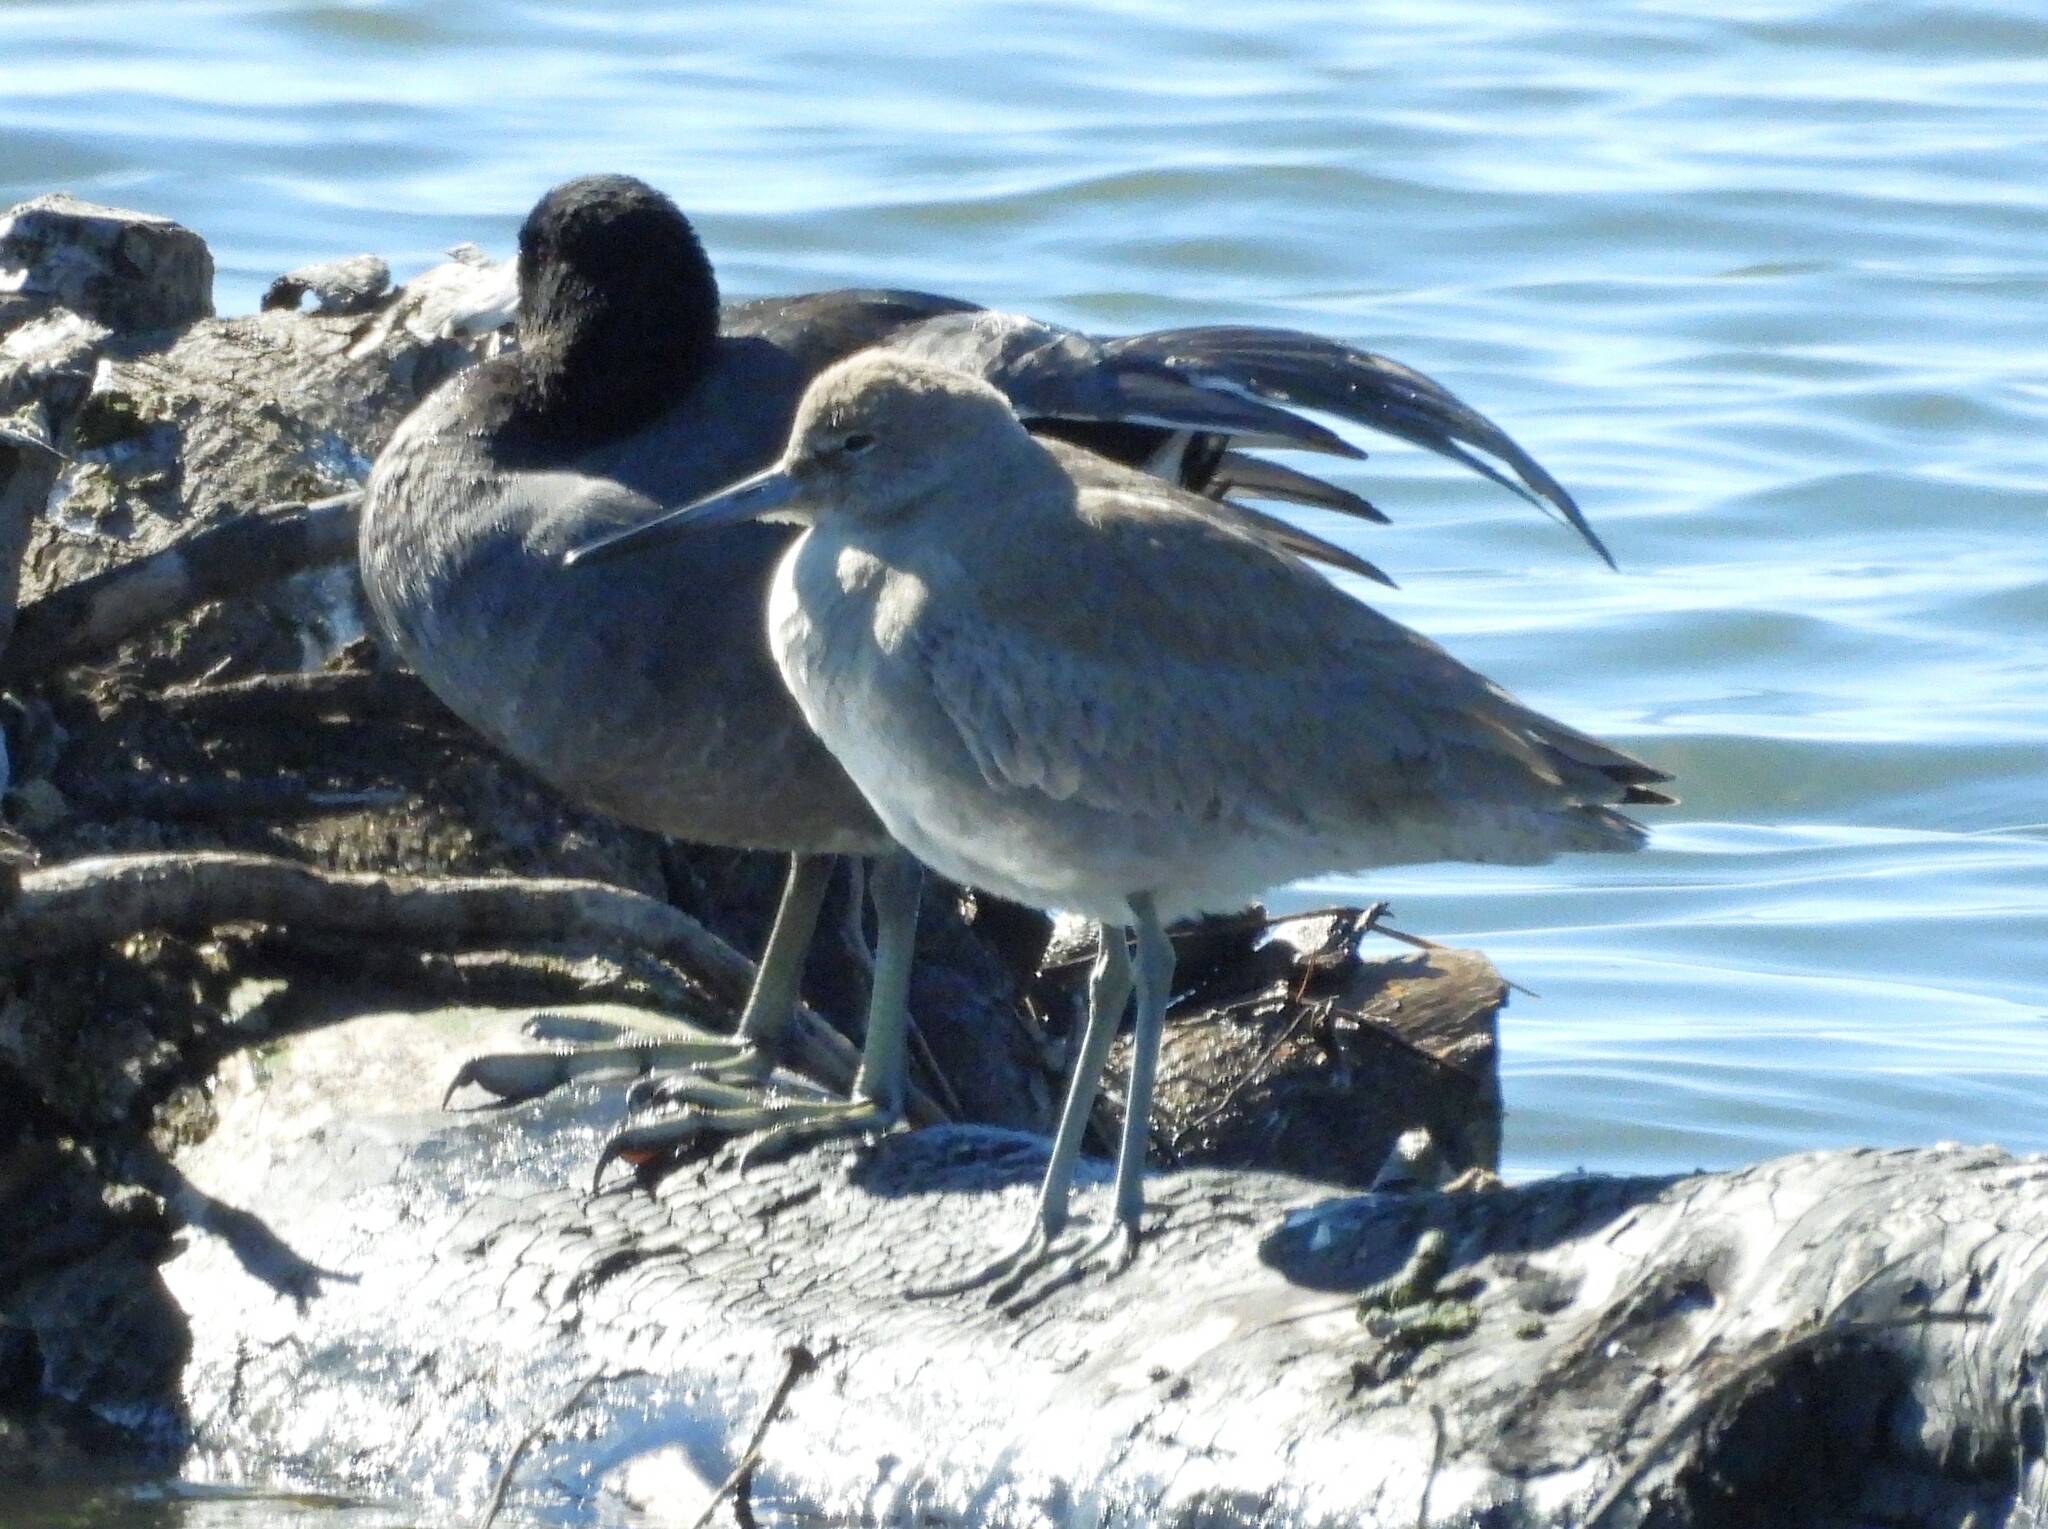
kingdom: Animalia
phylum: Chordata
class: Aves
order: Charadriiformes
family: Scolopacidae
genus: Tringa
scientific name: Tringa semipalmata
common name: Willet
